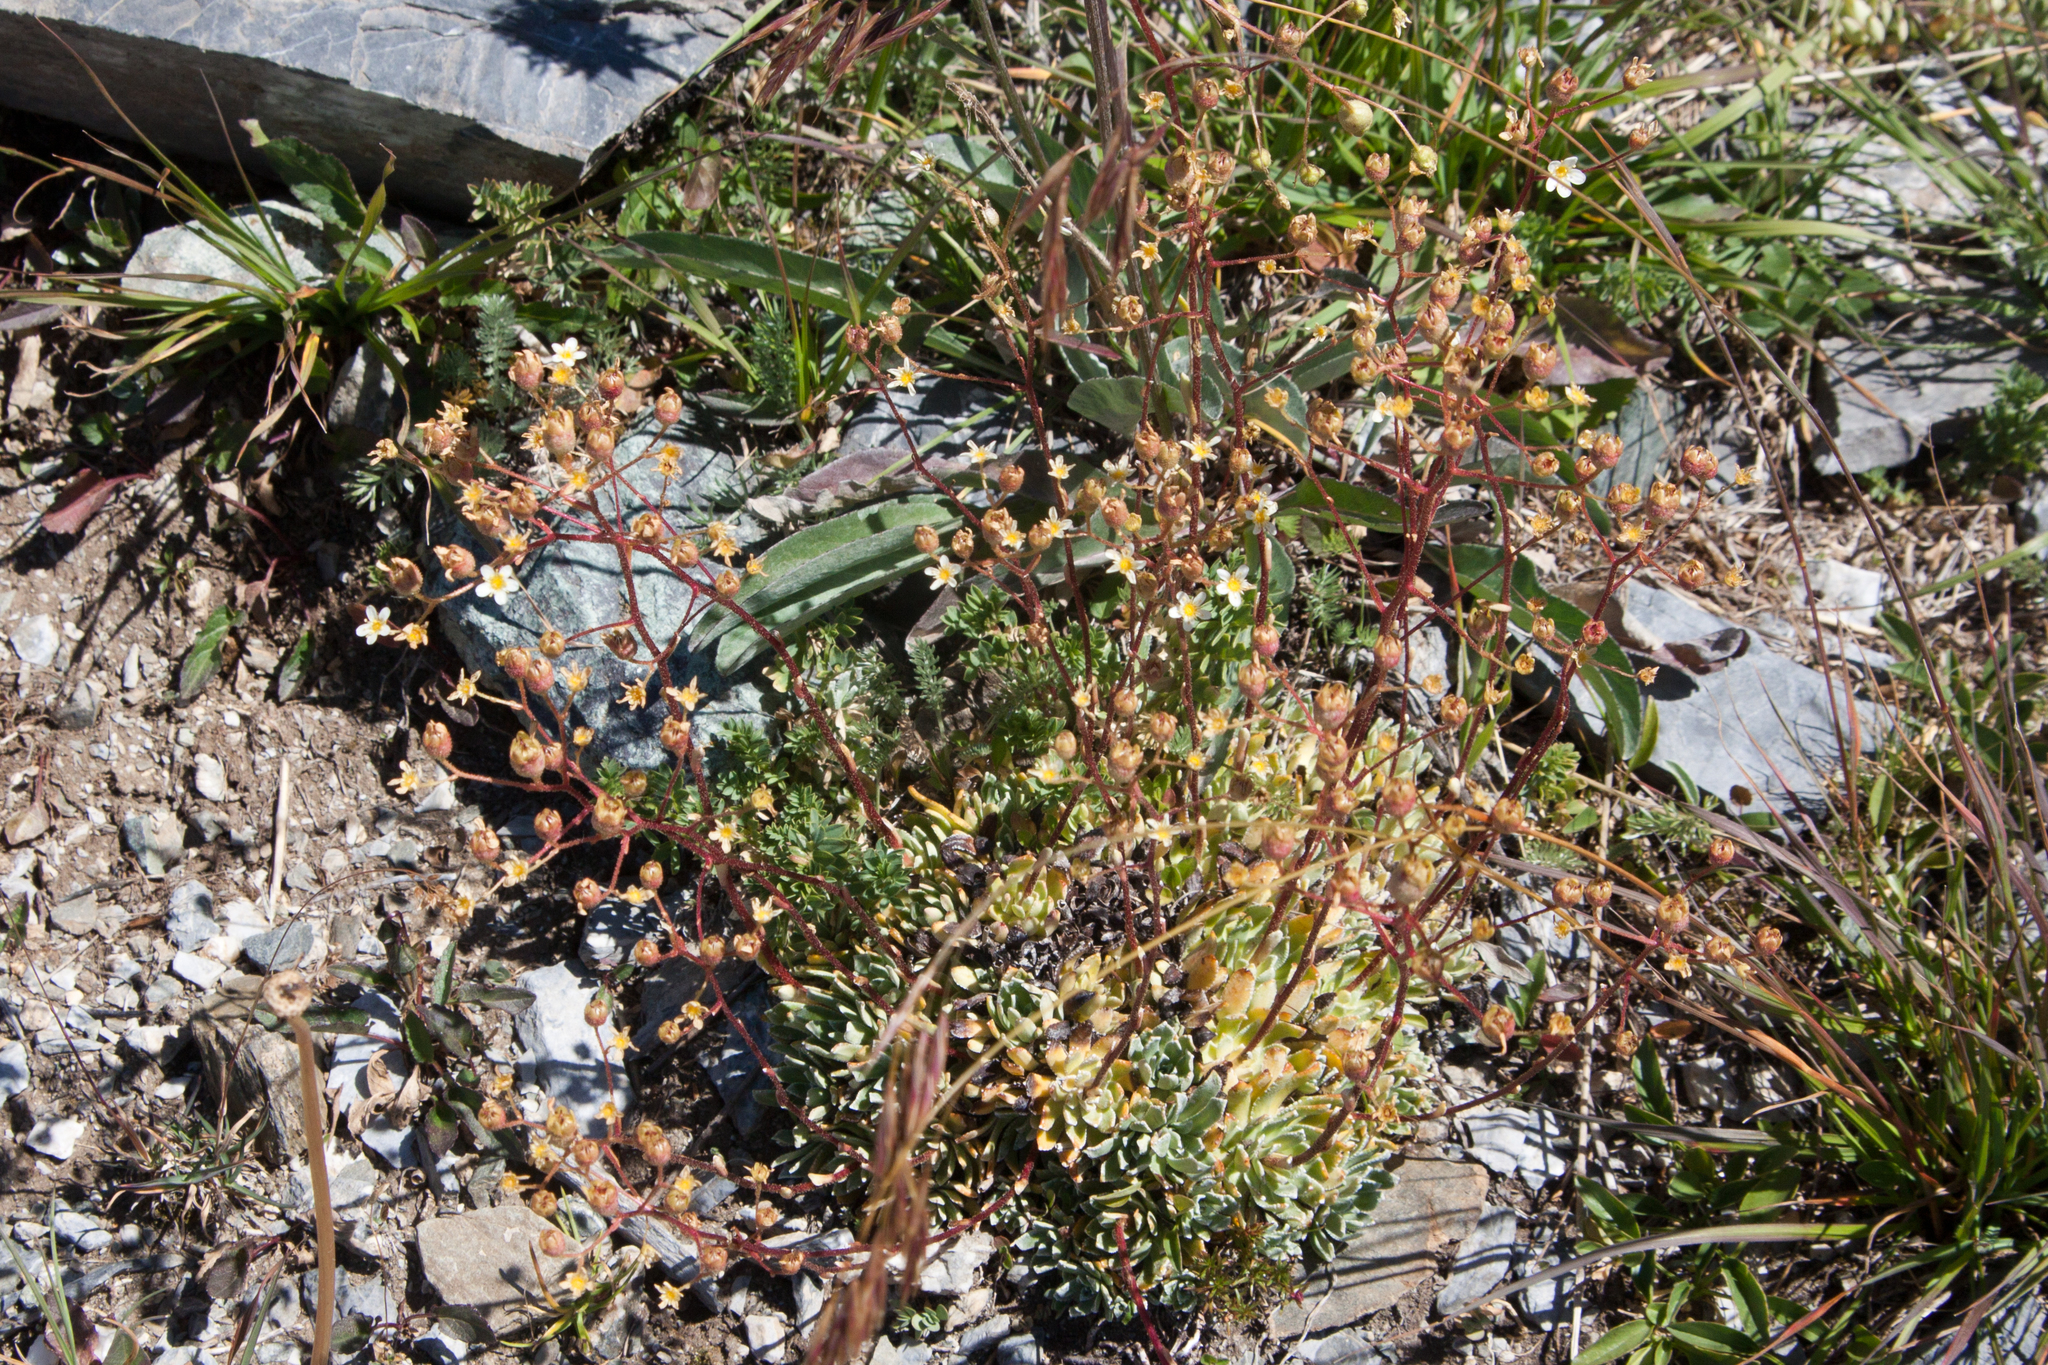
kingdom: Plantae
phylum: Tracheophyta
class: Magnoliopsida
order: Saxifragales
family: Saxifragaceae
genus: Saxifraga
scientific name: Saxifraga paniculata
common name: Livelong saxifrage
